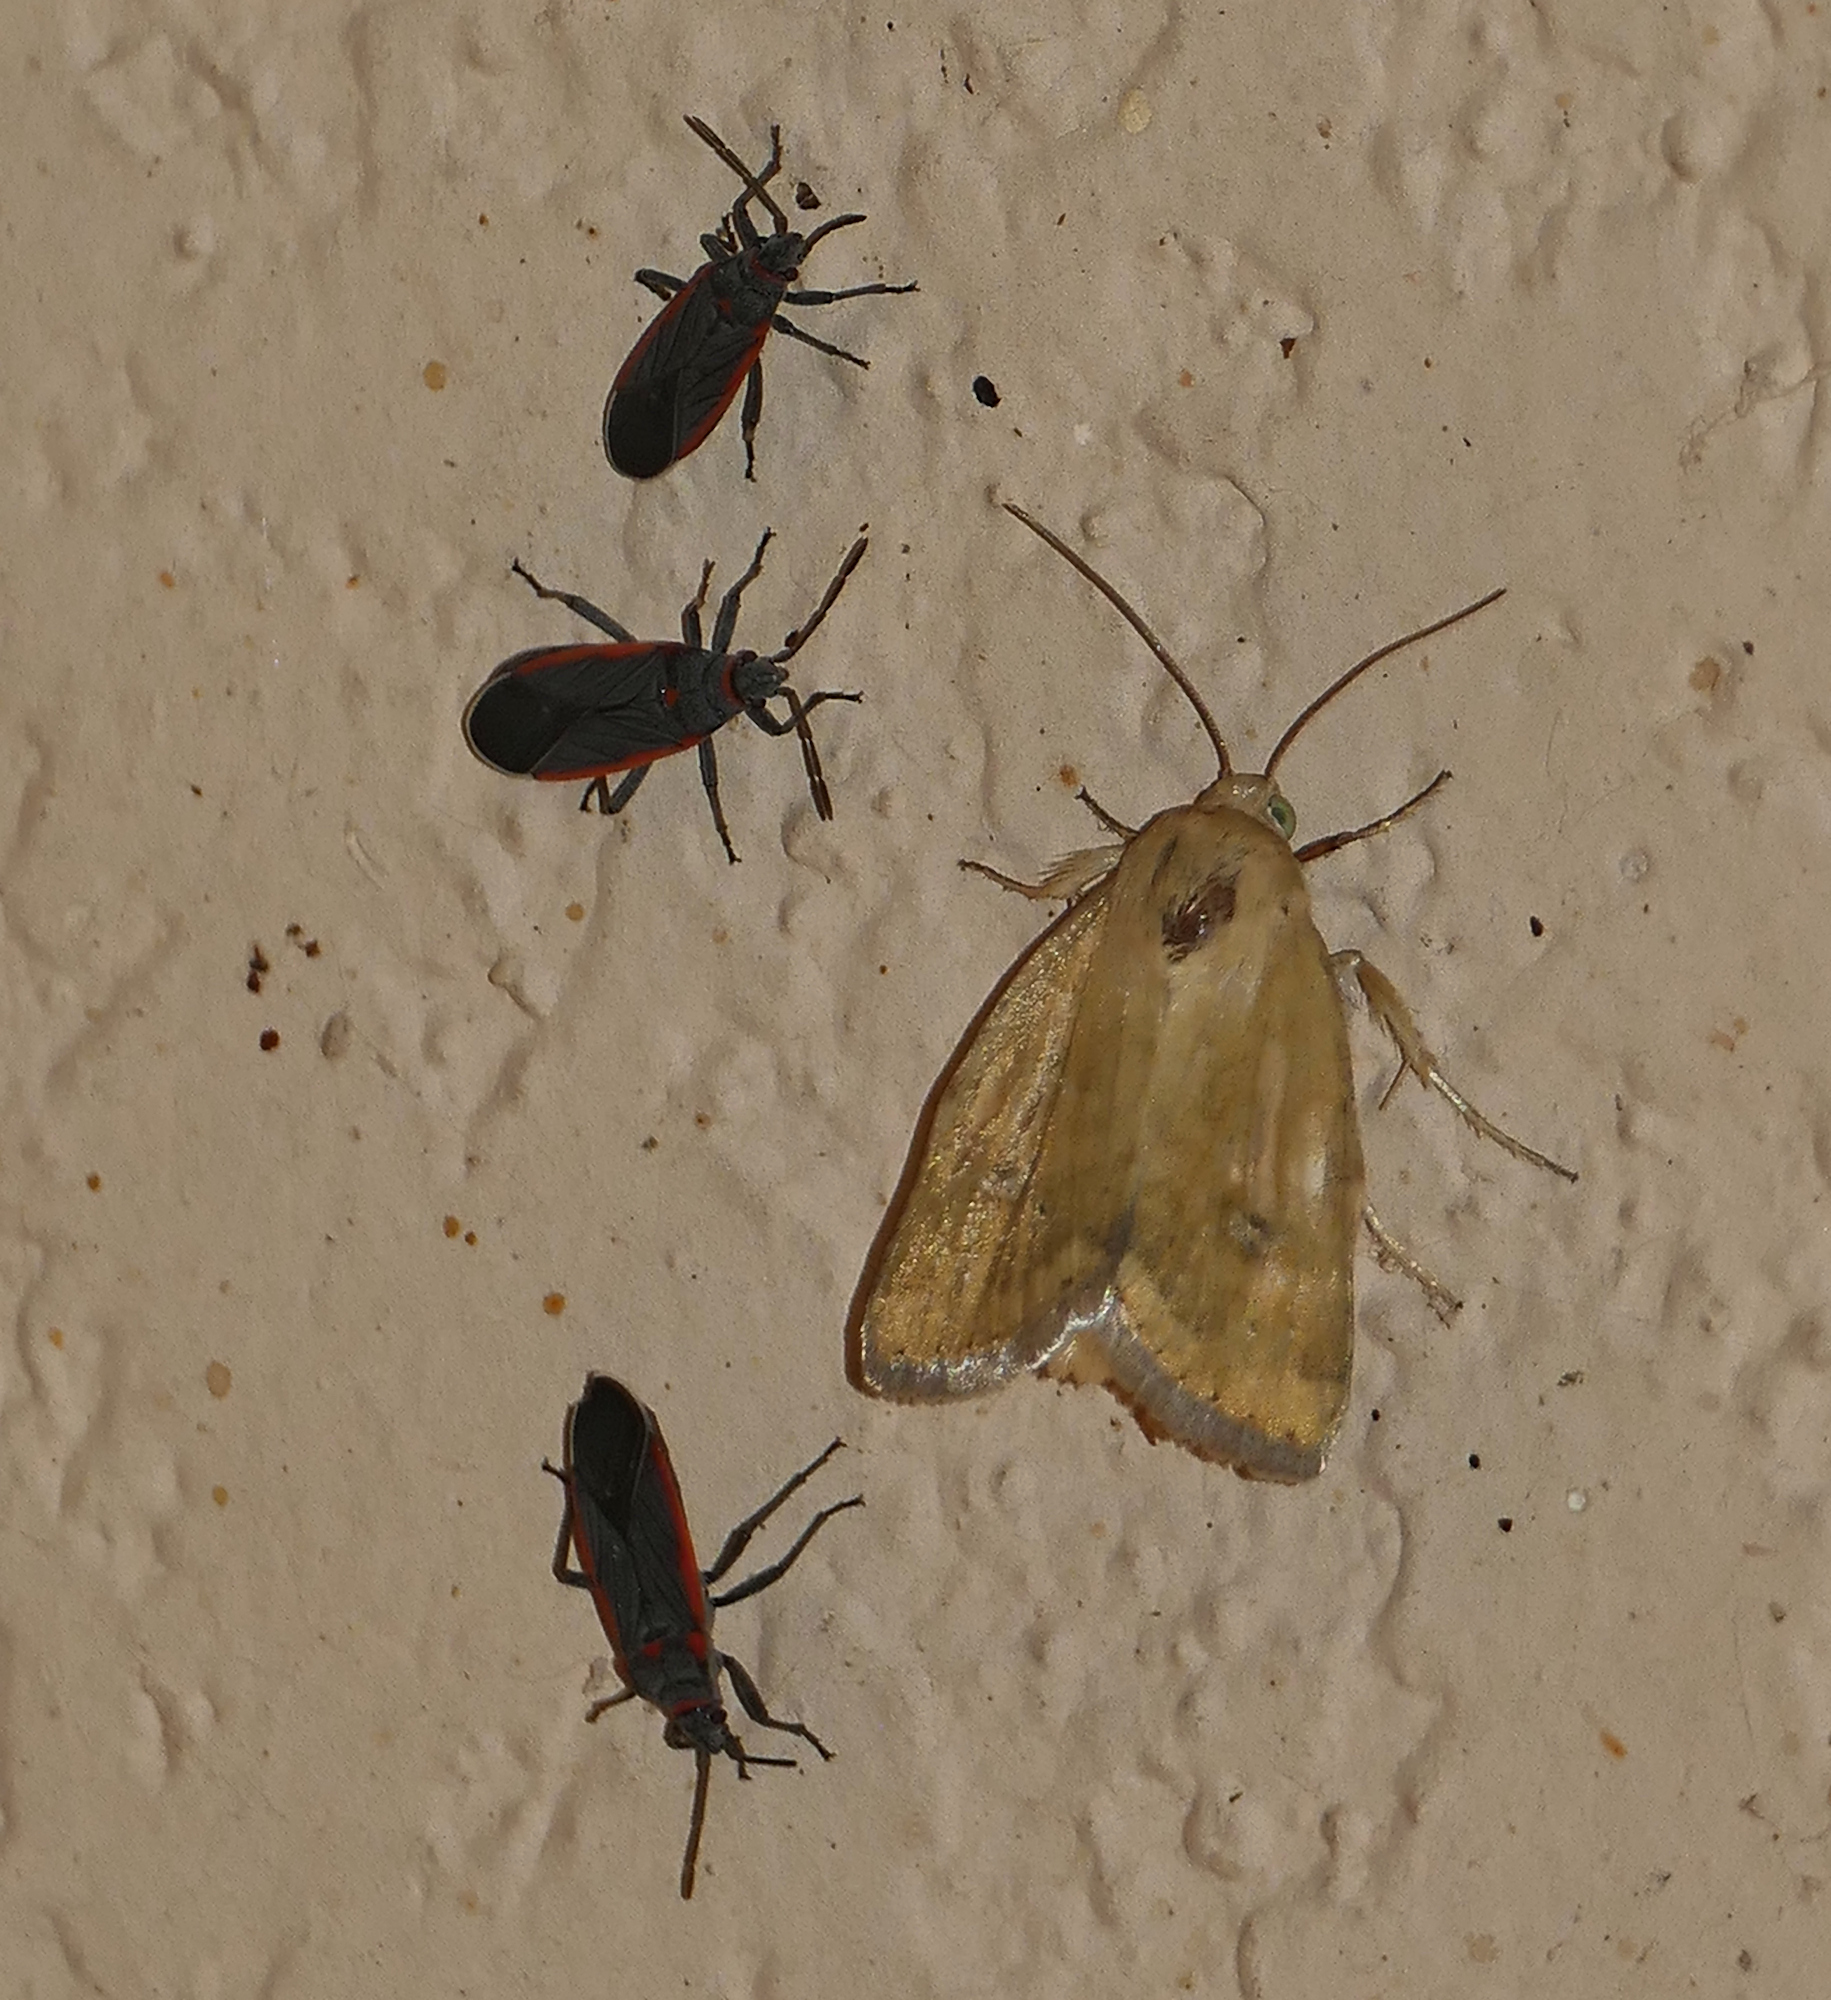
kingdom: Animalia
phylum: Arthropoda
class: Insecta
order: Hemiptera
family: Lygaeidae
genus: Melacoryphus
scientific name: Melacoryphus lateralis
